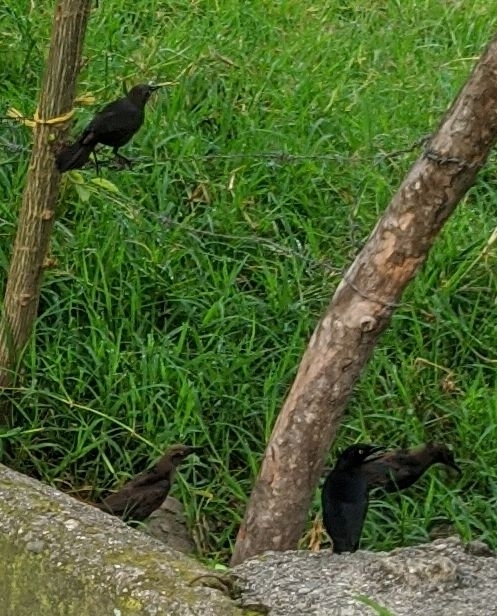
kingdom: Animalia
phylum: Chordata
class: Aves
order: Passeriformes
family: Icteridae
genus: Quiscalus
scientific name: Quiscalus lugubris
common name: Carib grackle
